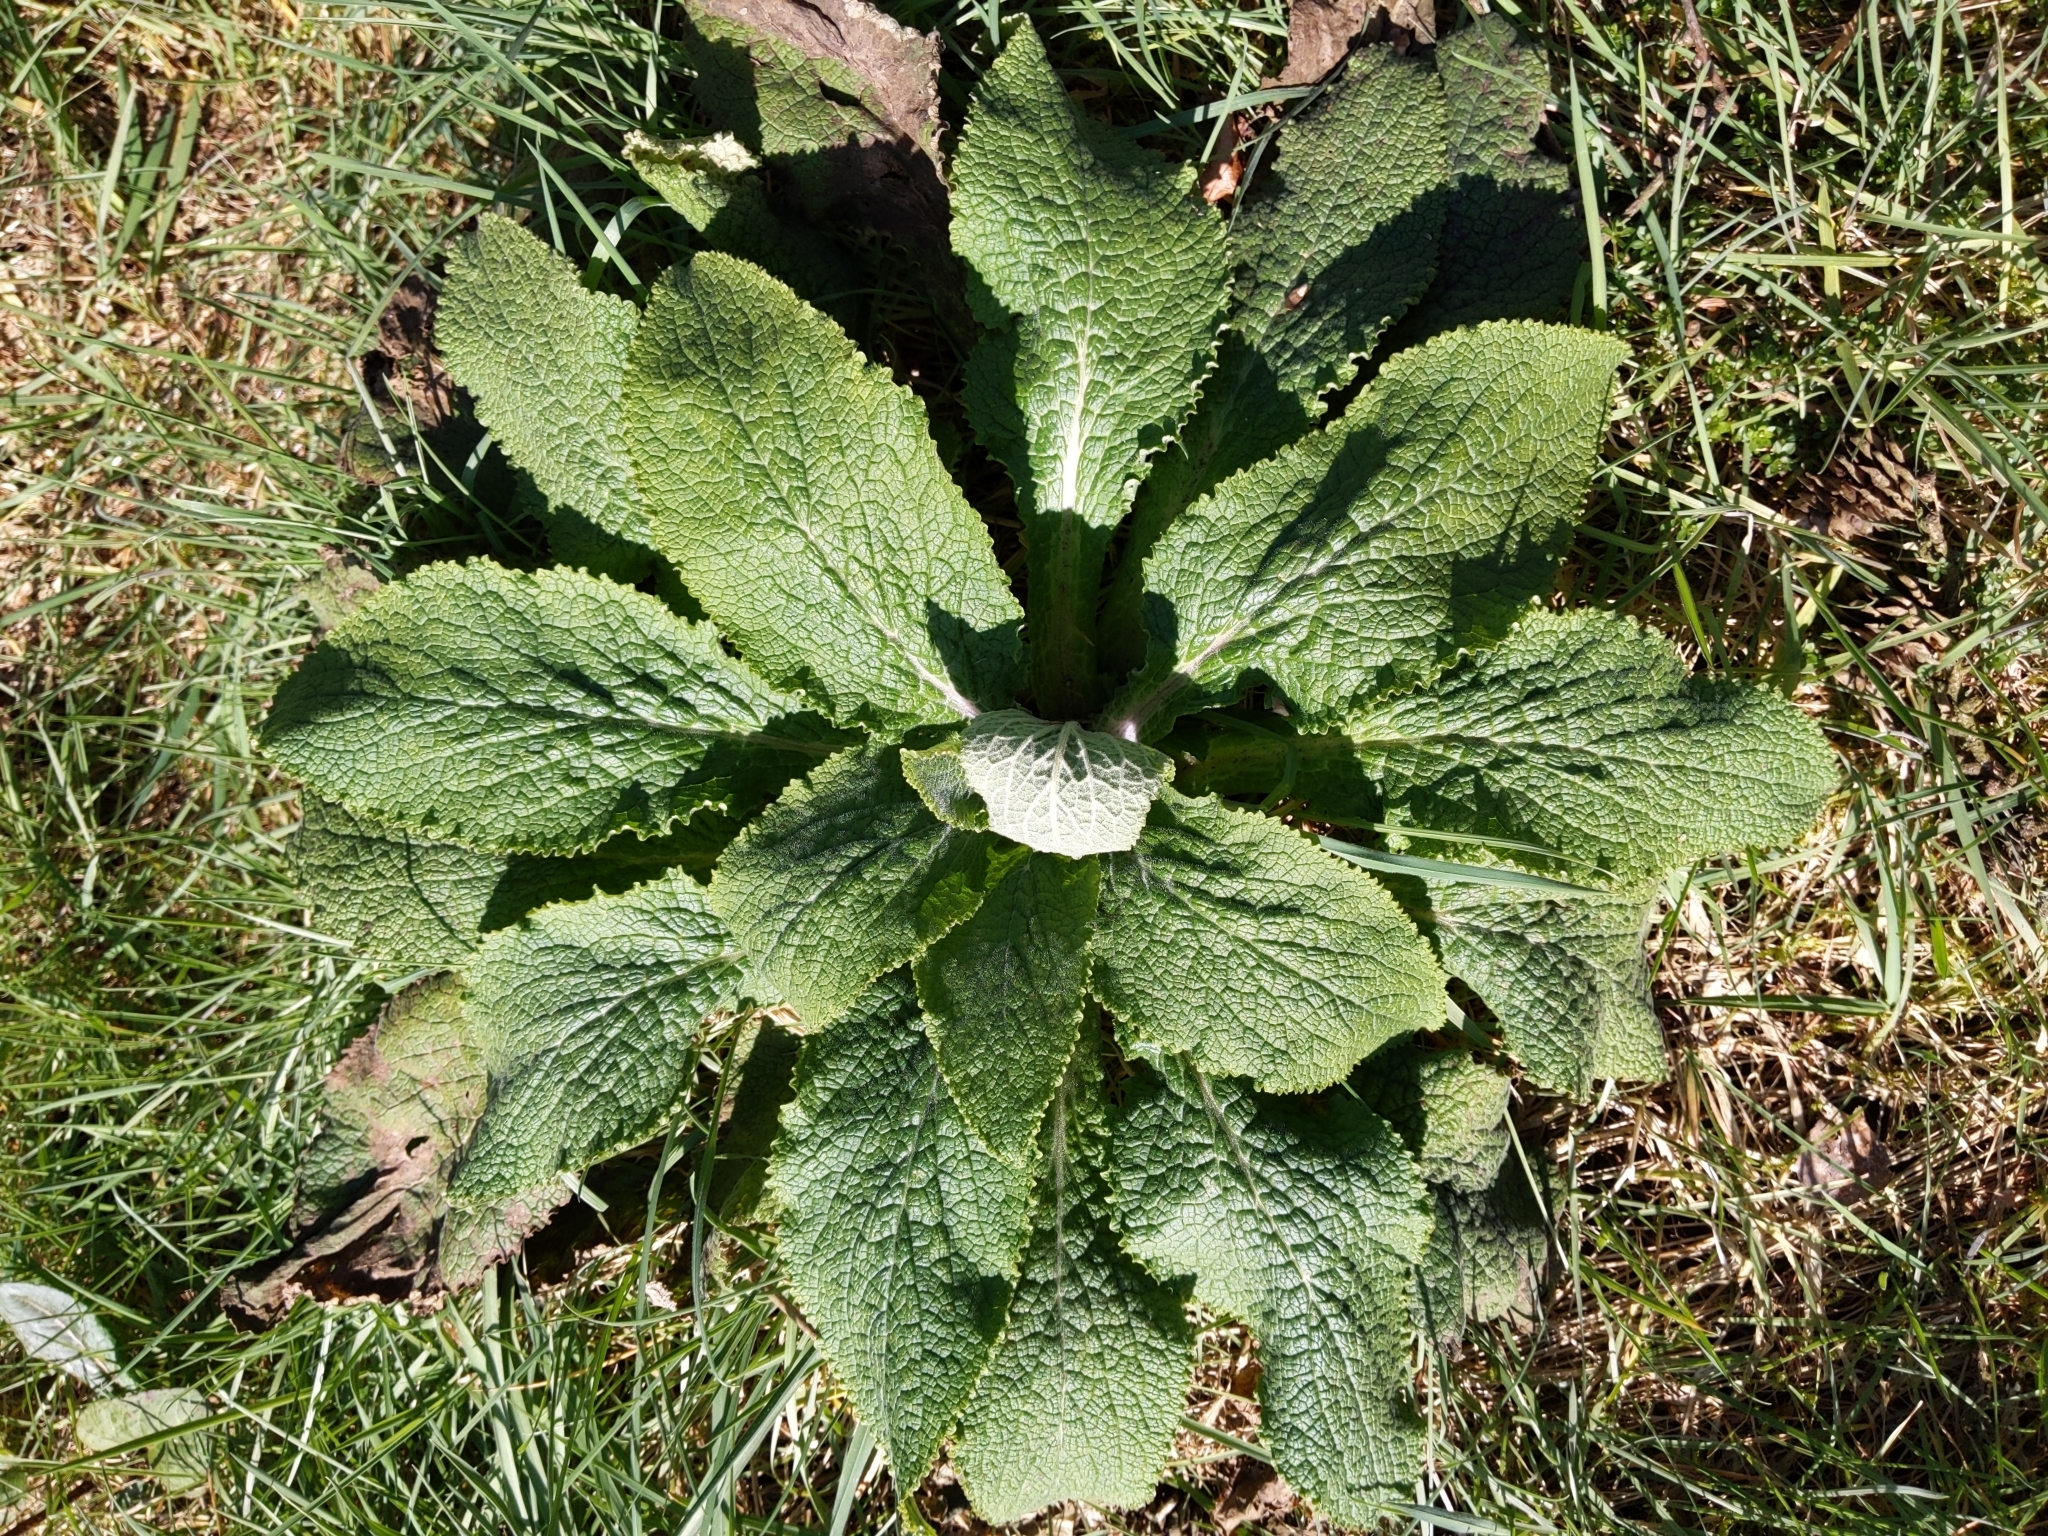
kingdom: Plantae
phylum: Tracheophyta
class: Magnoliopsida
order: Lamiales
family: Plantaginaceae
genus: Digitalis
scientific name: Digitalis purpurea
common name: Foxglove
